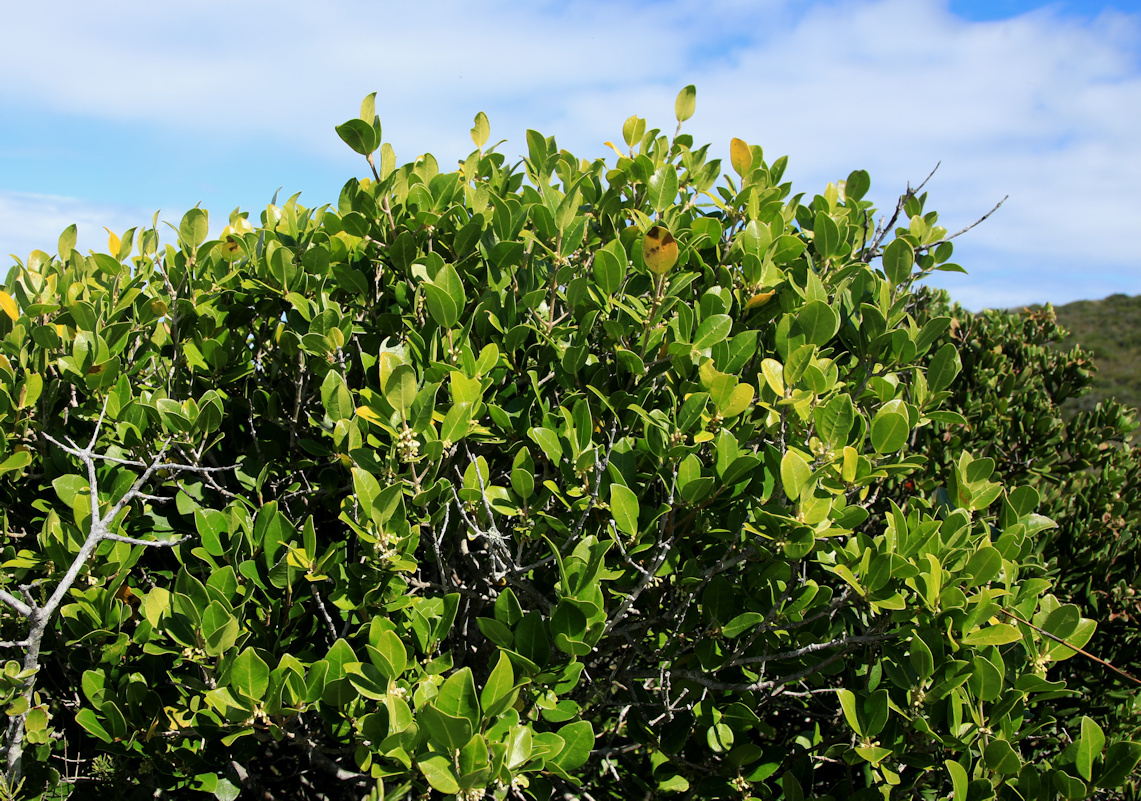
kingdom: Plantae
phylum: Tracheophyta
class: Magnoliopsida
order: Lamiales
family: Oleaceae
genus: Noronhia
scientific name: Noronhia foveolata
